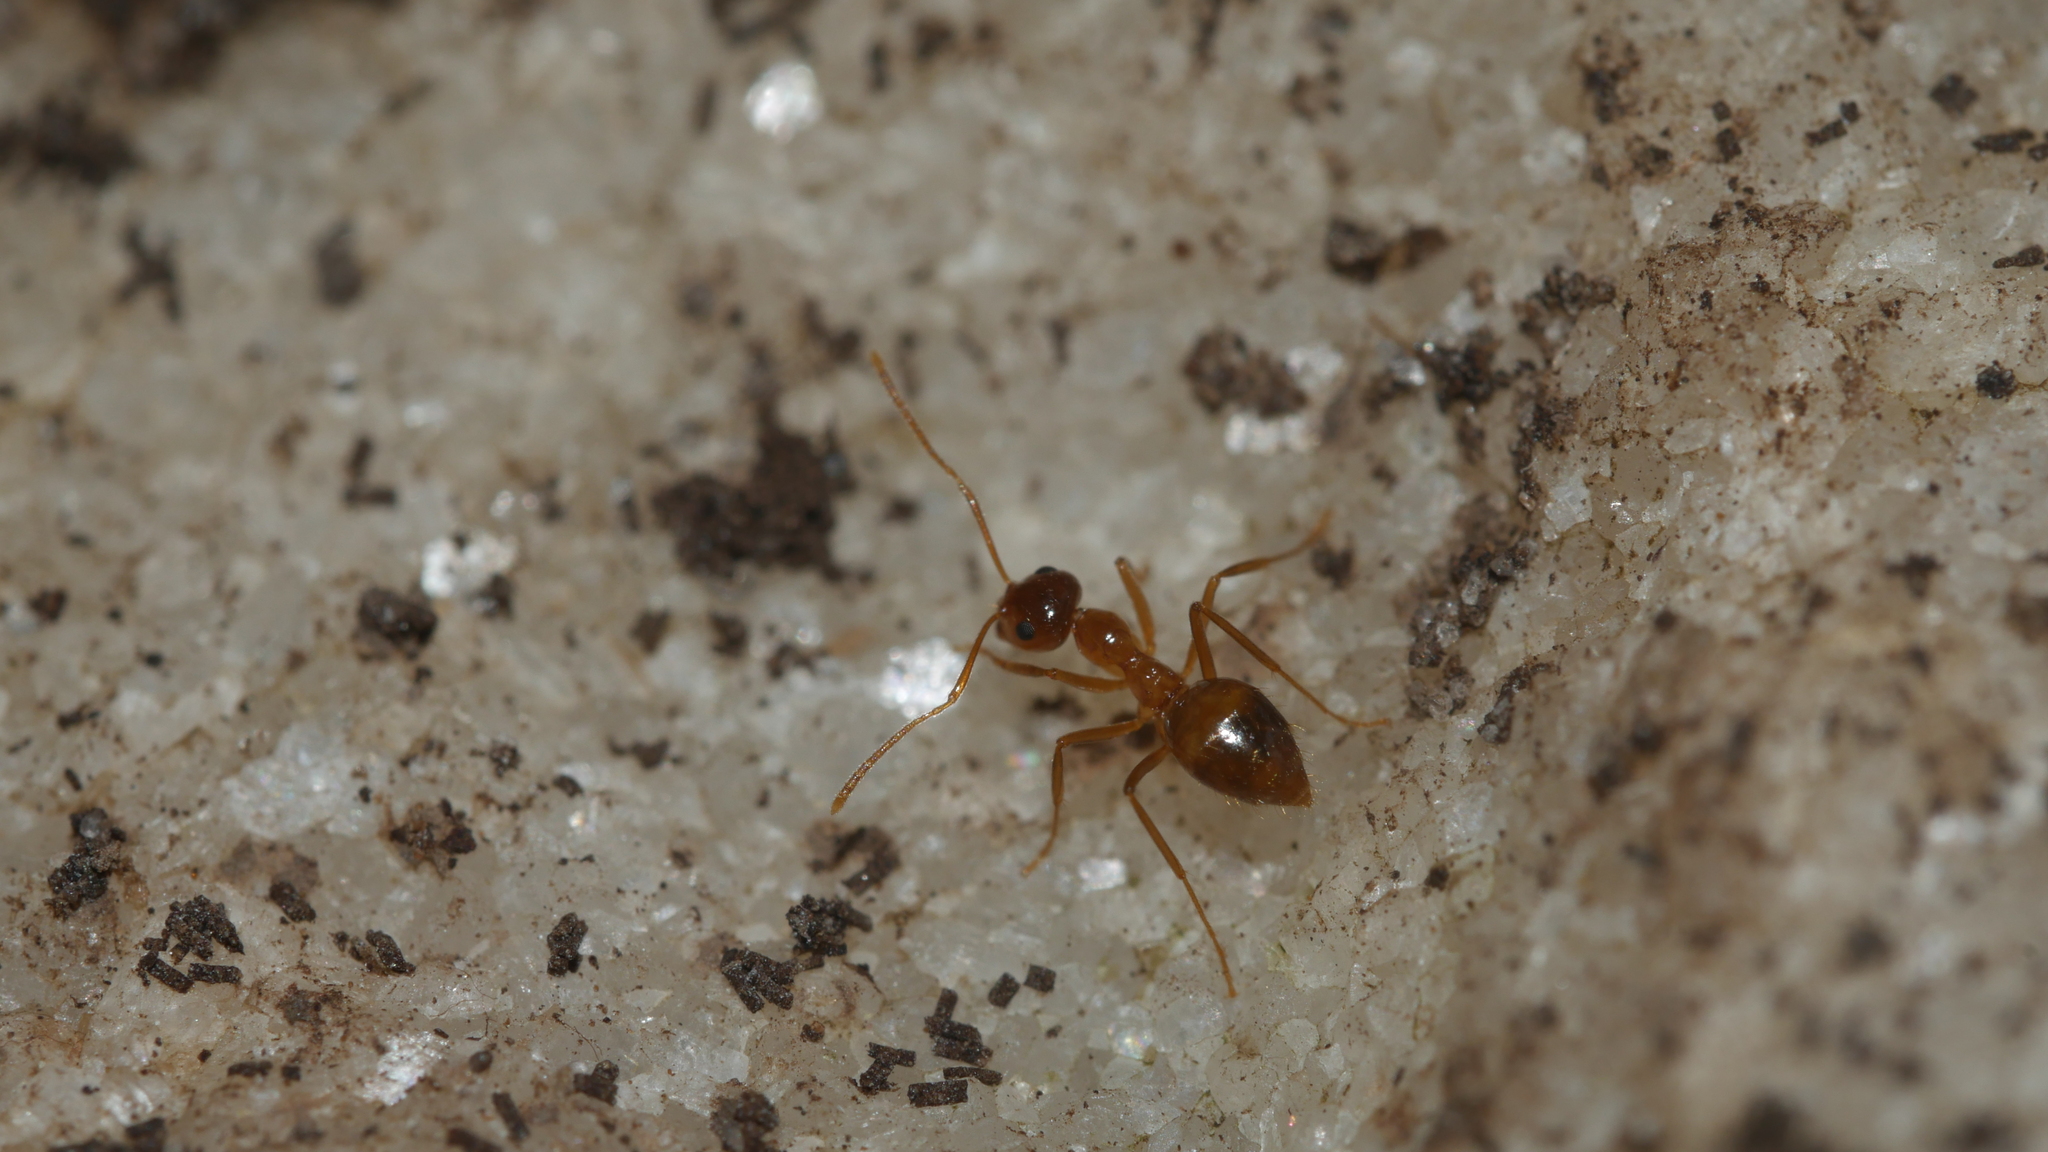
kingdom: Animalia
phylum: Arthropoda
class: Insecta
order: Hymenoptera
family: Formicidae
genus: Prenolepis
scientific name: Prenolepis imparis
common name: Small honey ant
